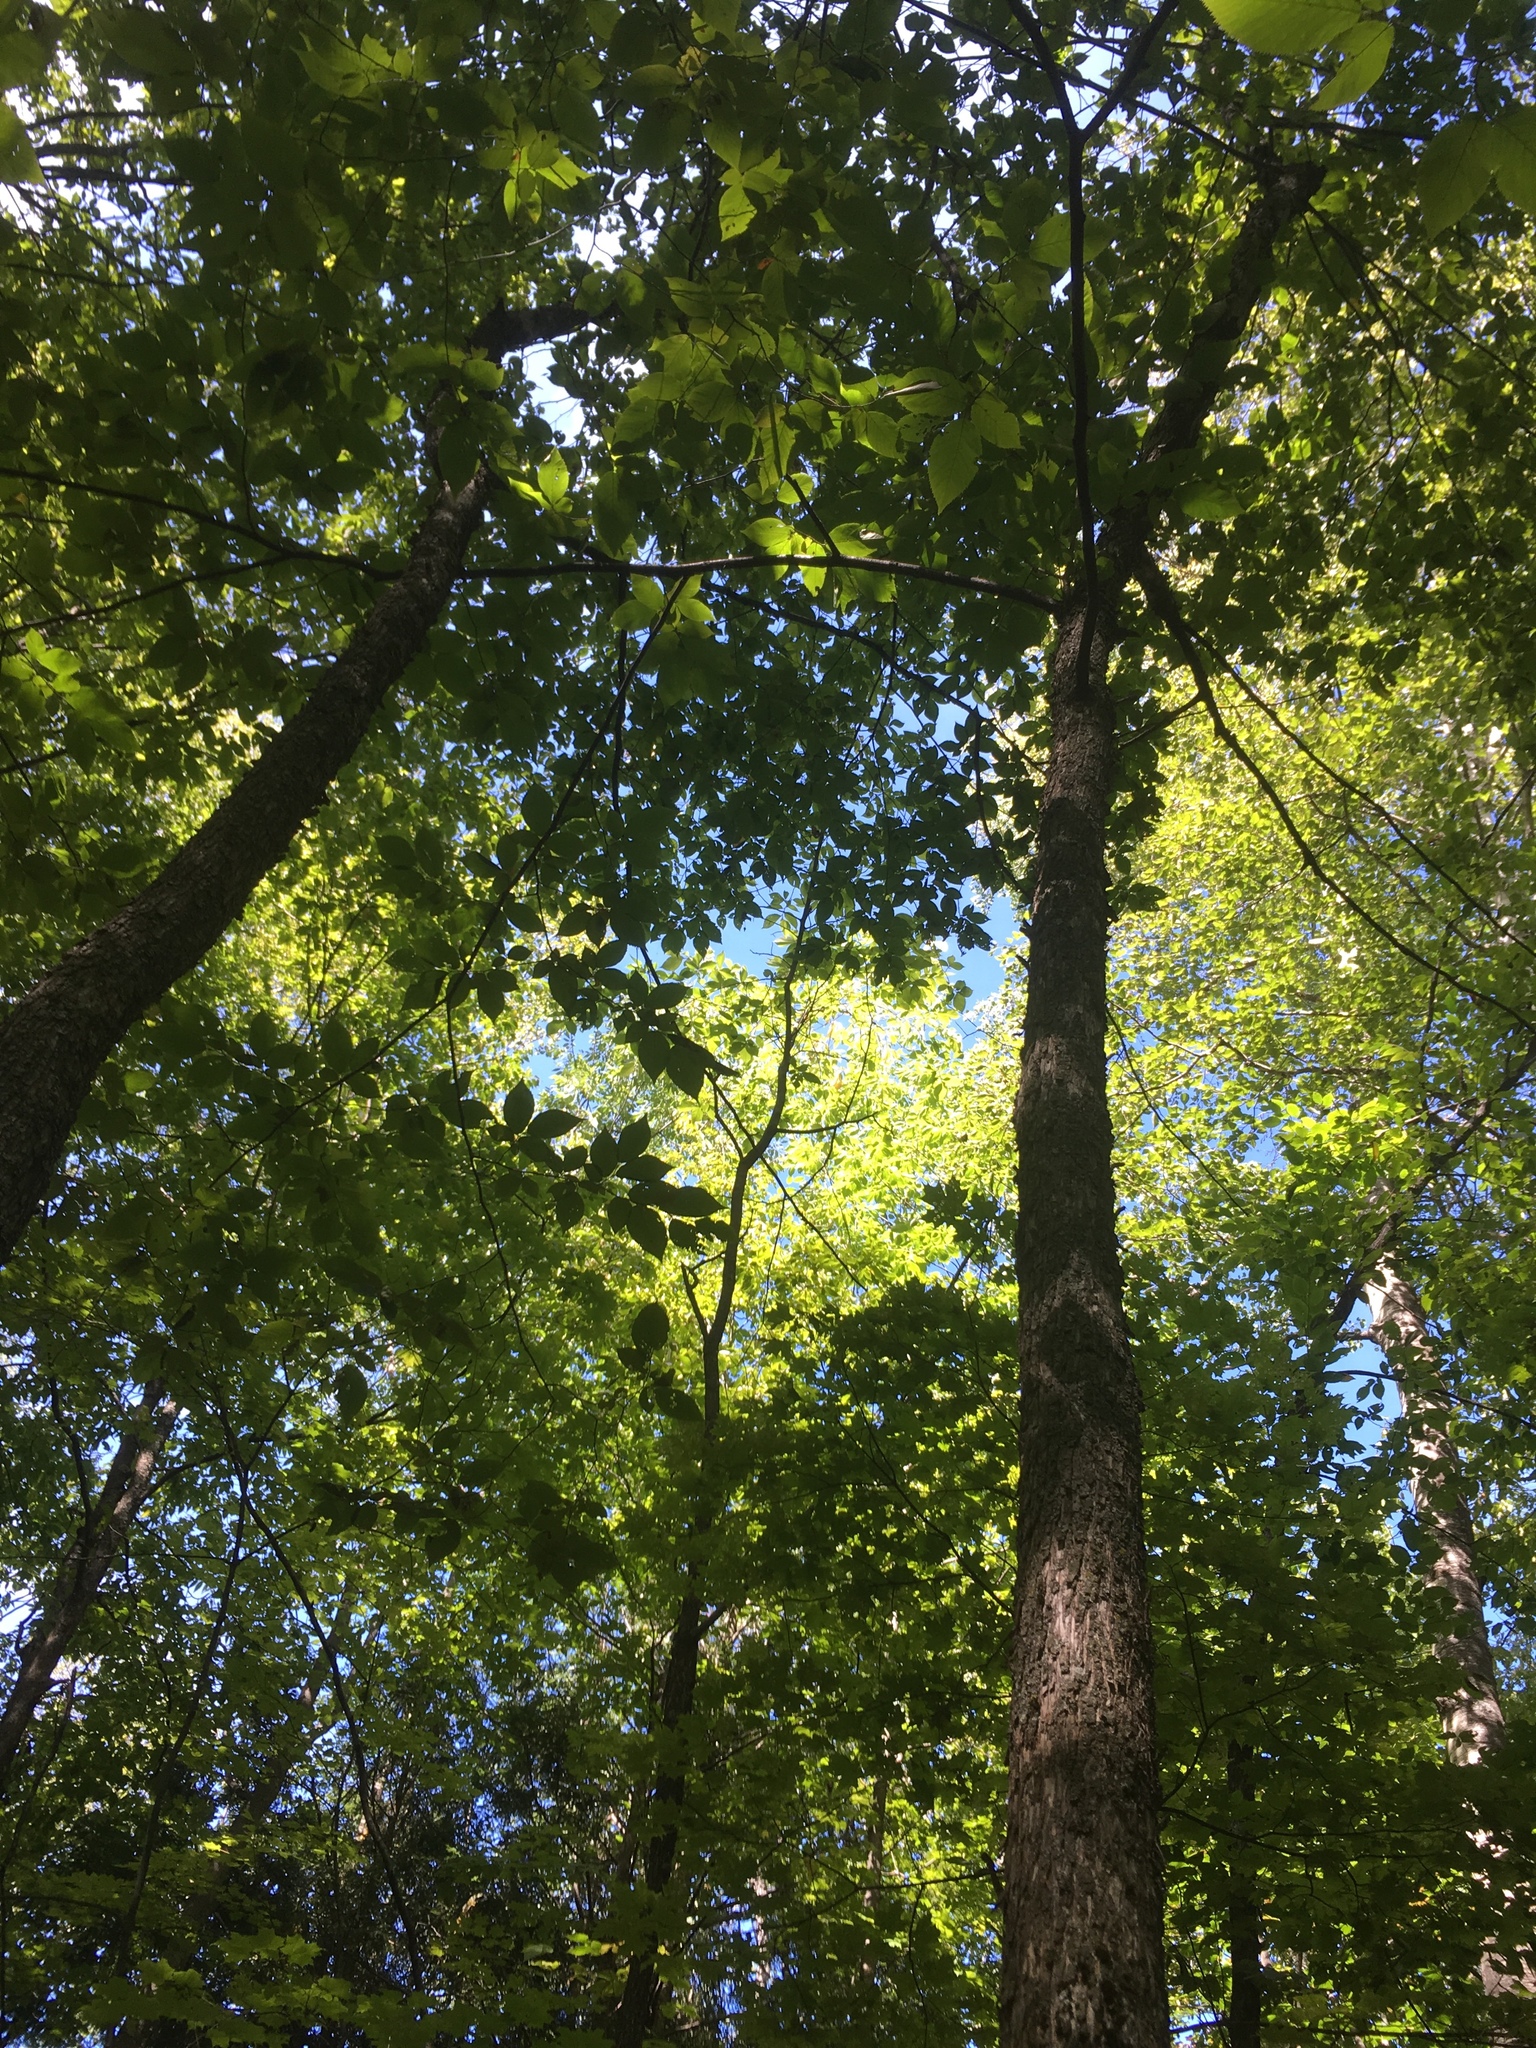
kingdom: Plantae
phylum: Tracheophyta
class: Magnoliopsida
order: Fagales
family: Betulaceae
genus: Ostrya
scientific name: Ostrya virginiana
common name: Ironwood
